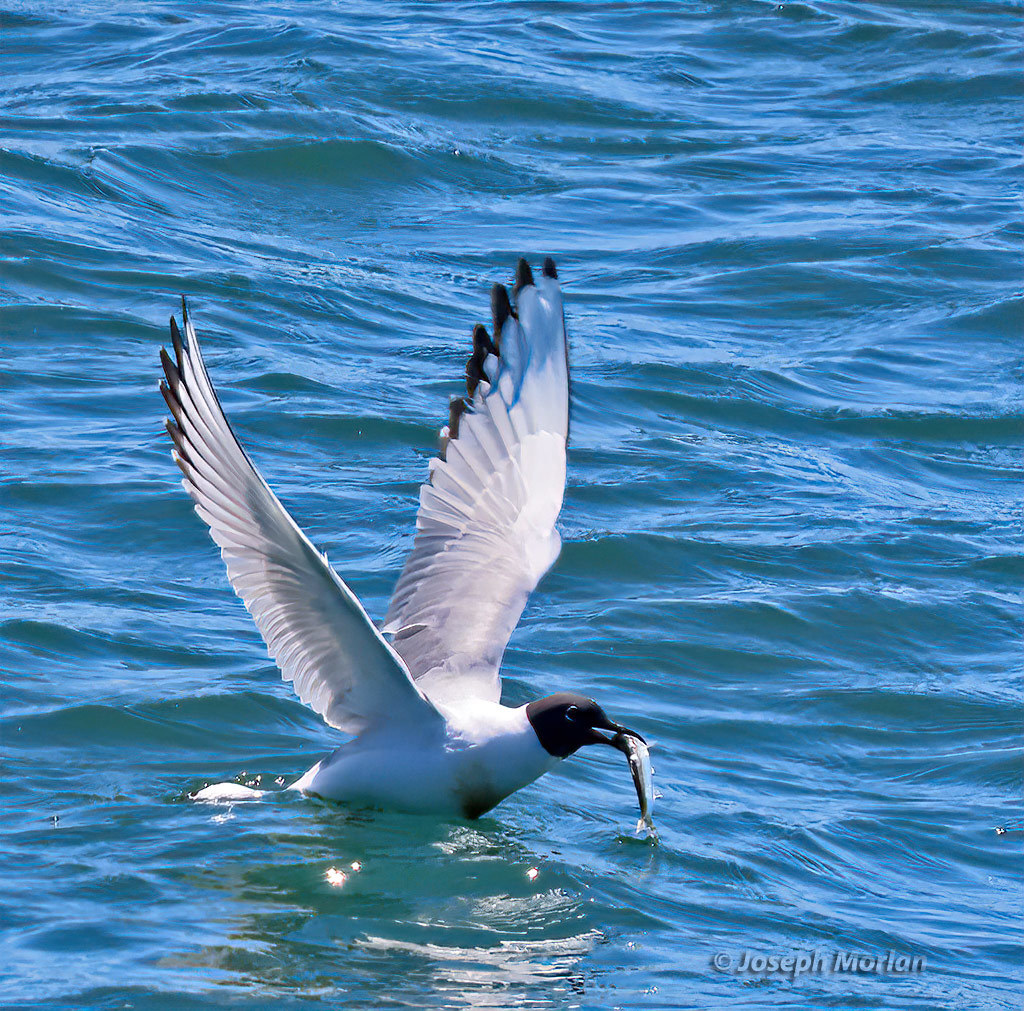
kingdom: Animalia
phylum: Chordata
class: Aves
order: Charadriiformes
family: Laridae
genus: Chroicocephalus
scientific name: Chroicocephalus philadelphia
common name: Bonaparte's gull
